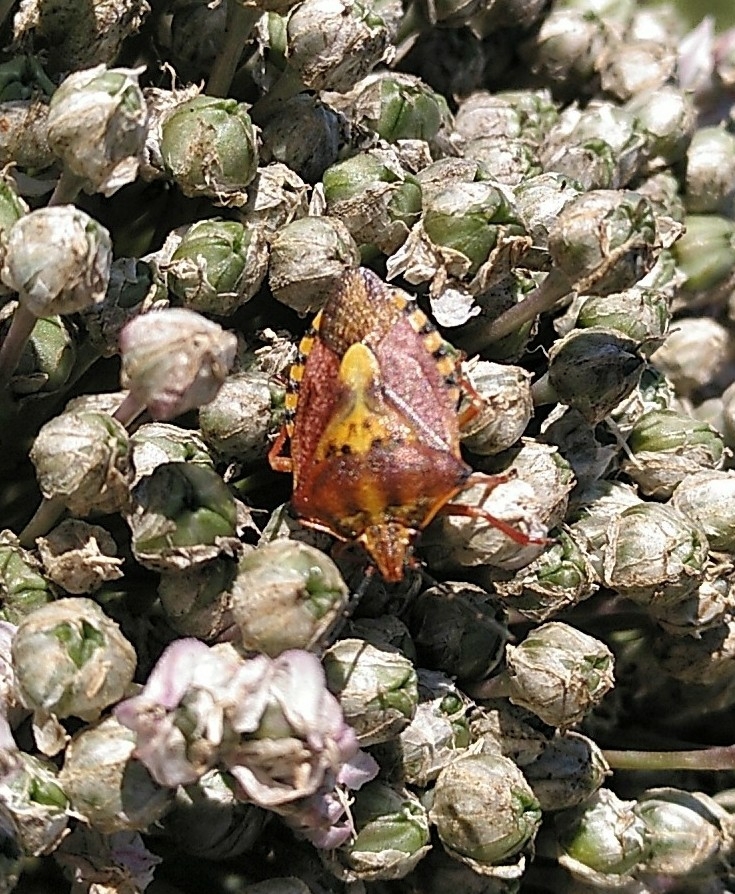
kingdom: Animalia
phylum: Arthropoda
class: Insecta
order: Hemiptera
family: Pentatomidae
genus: Carpocoris
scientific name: Carpocoris purpureipennis
